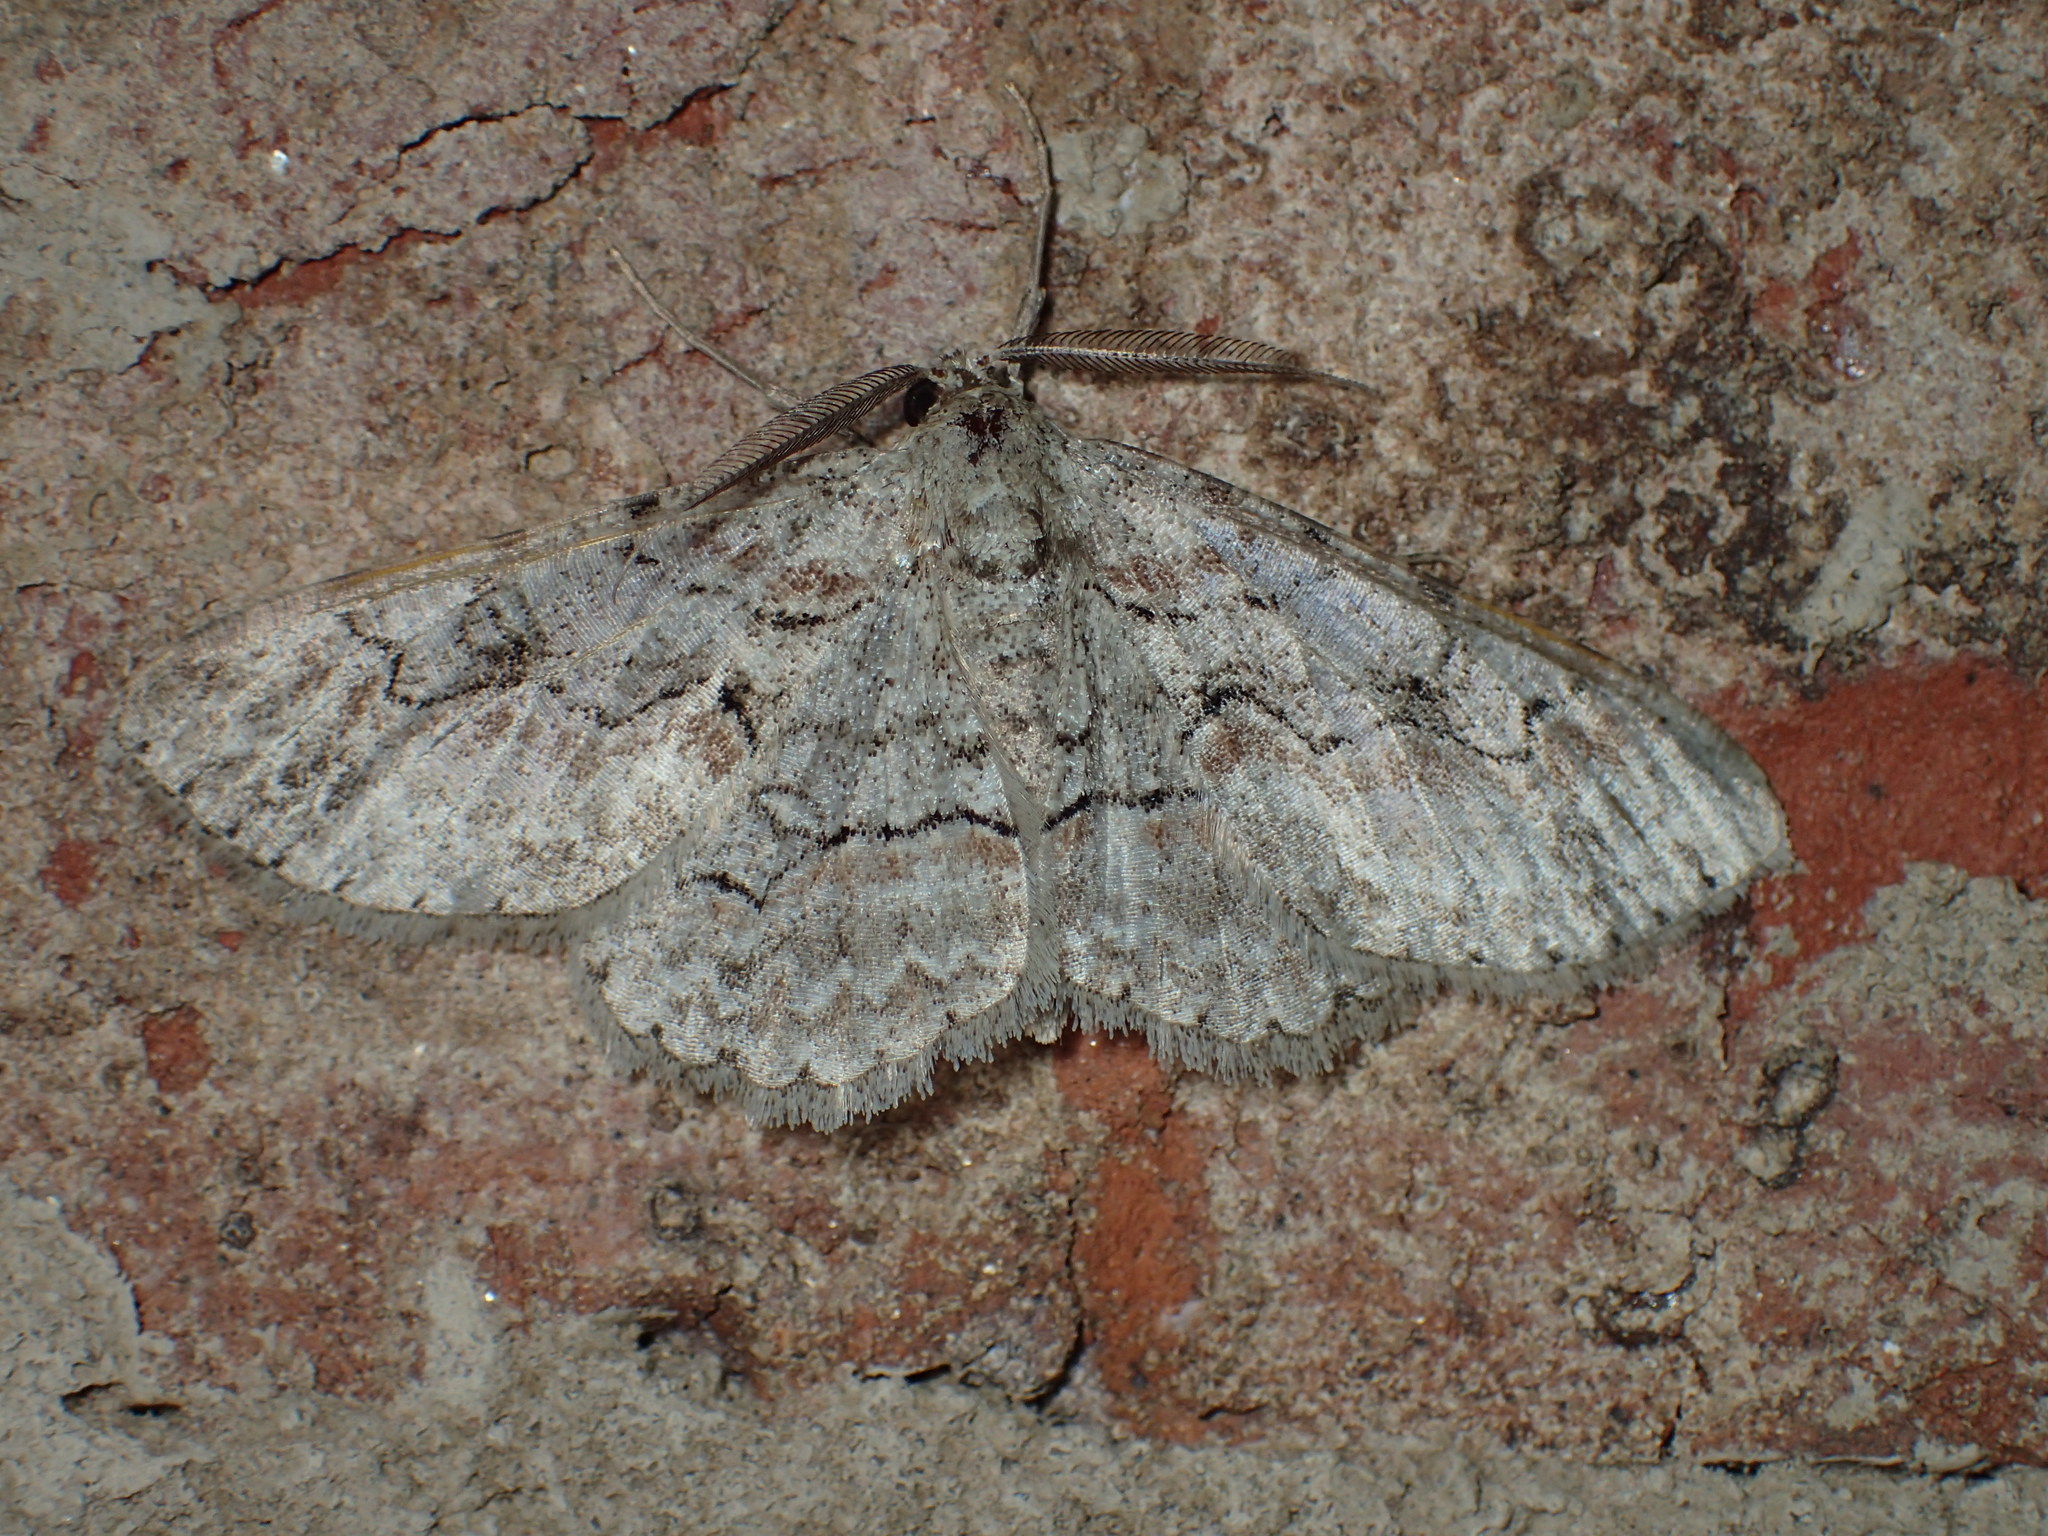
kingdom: Animalia
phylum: Arthropoda
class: Insecta
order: Lepidoptera
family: Geometridae
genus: Iridopsis
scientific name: Iridopsis defectaria
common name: Brown-shaded gray
